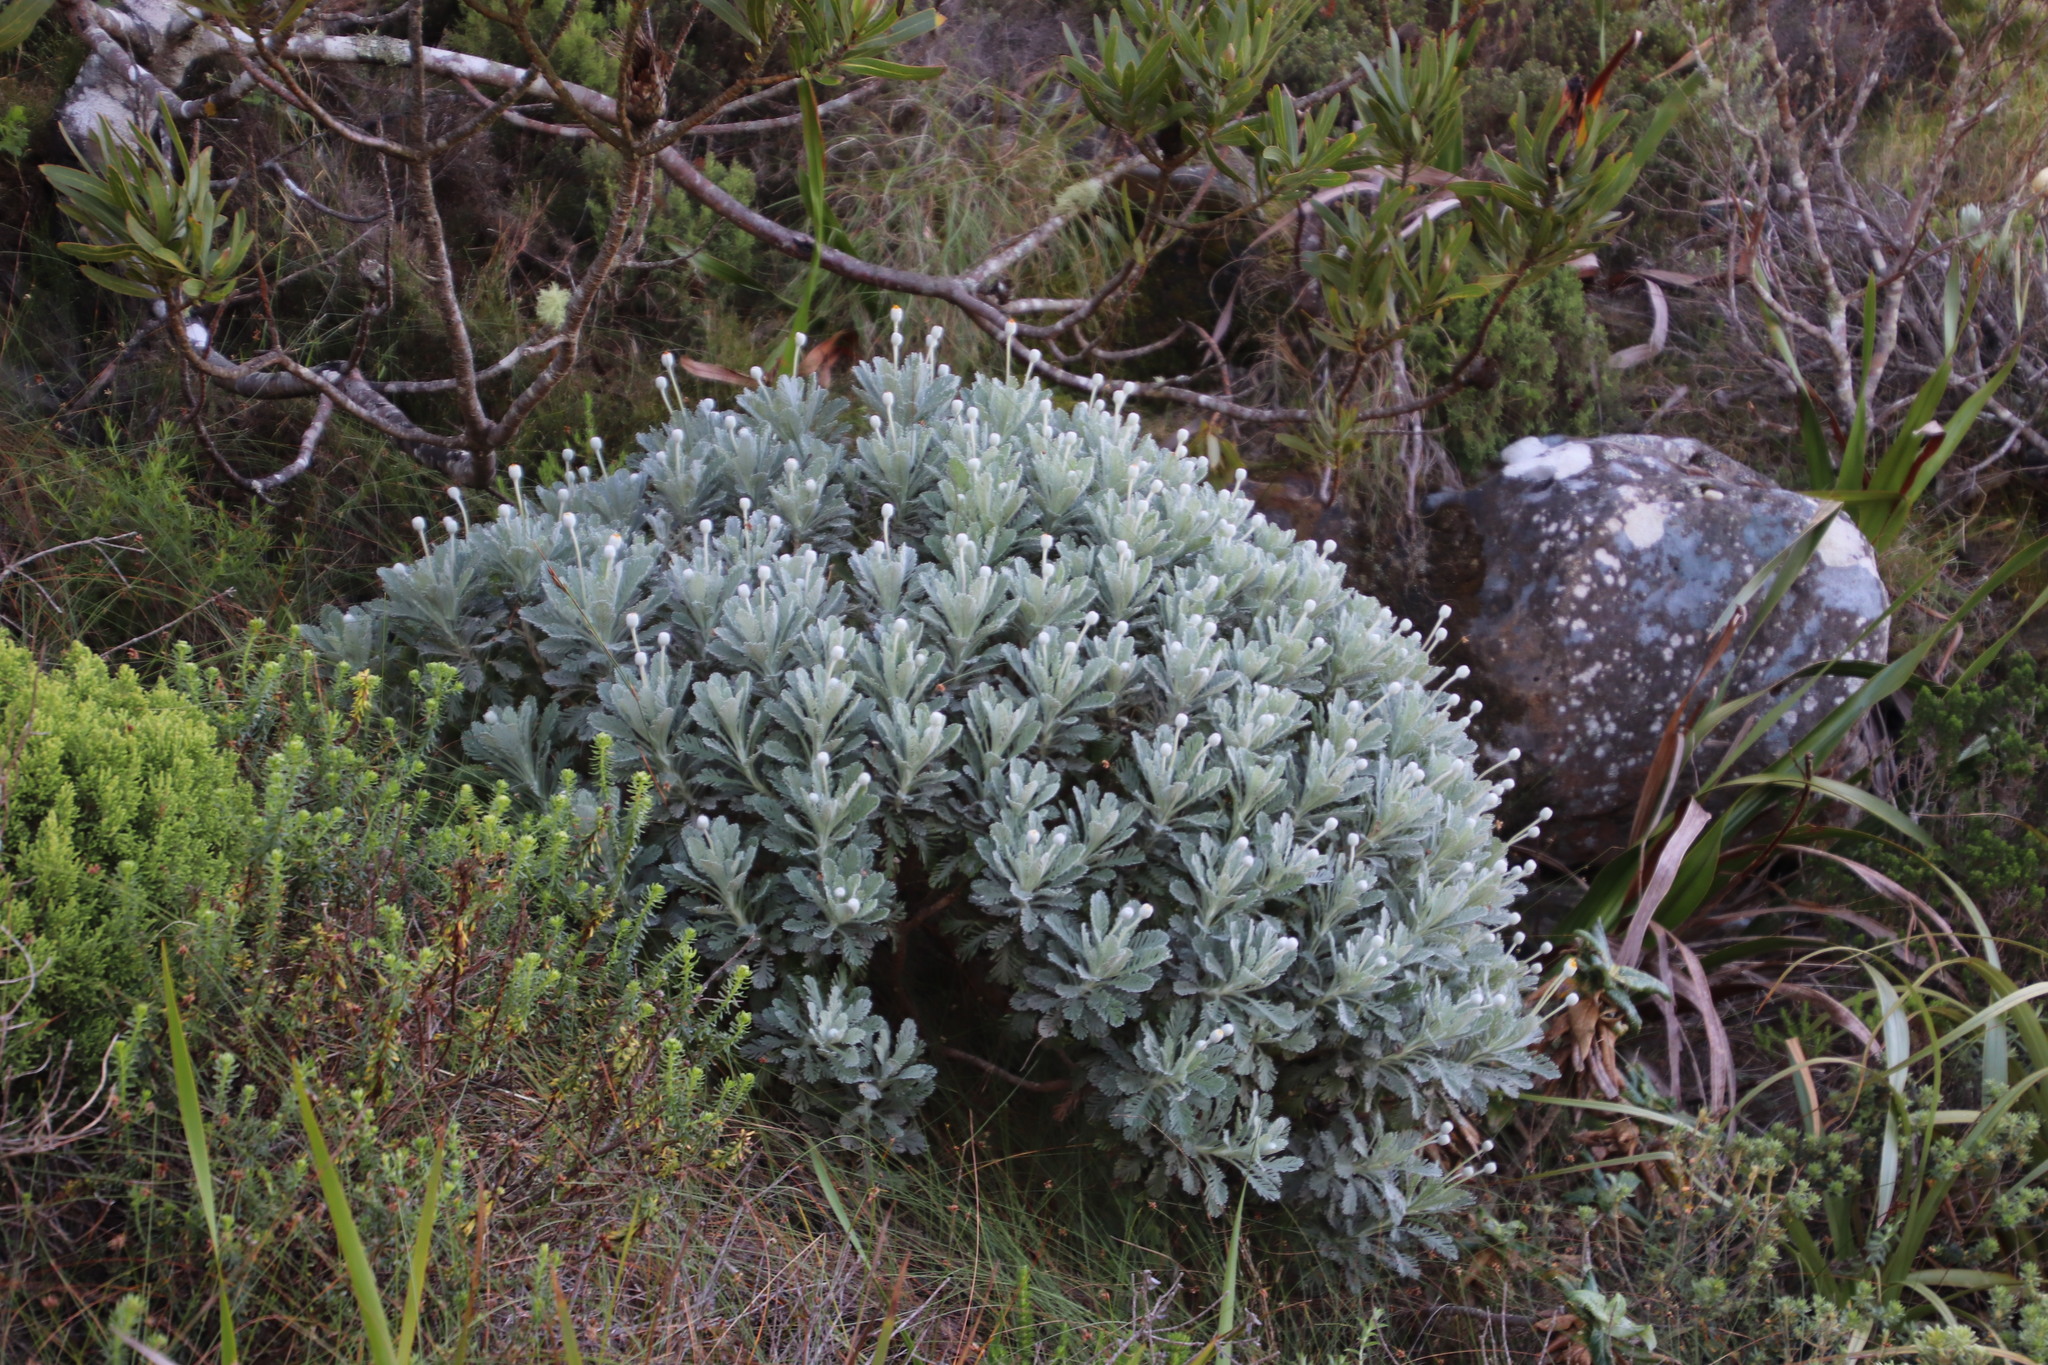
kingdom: Plantae
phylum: Tracheophyta
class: Magnoliopsida
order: Asterales
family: Asteraceae
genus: Euryops
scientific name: Euryops pectinatus
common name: Gray-leaf euryops
